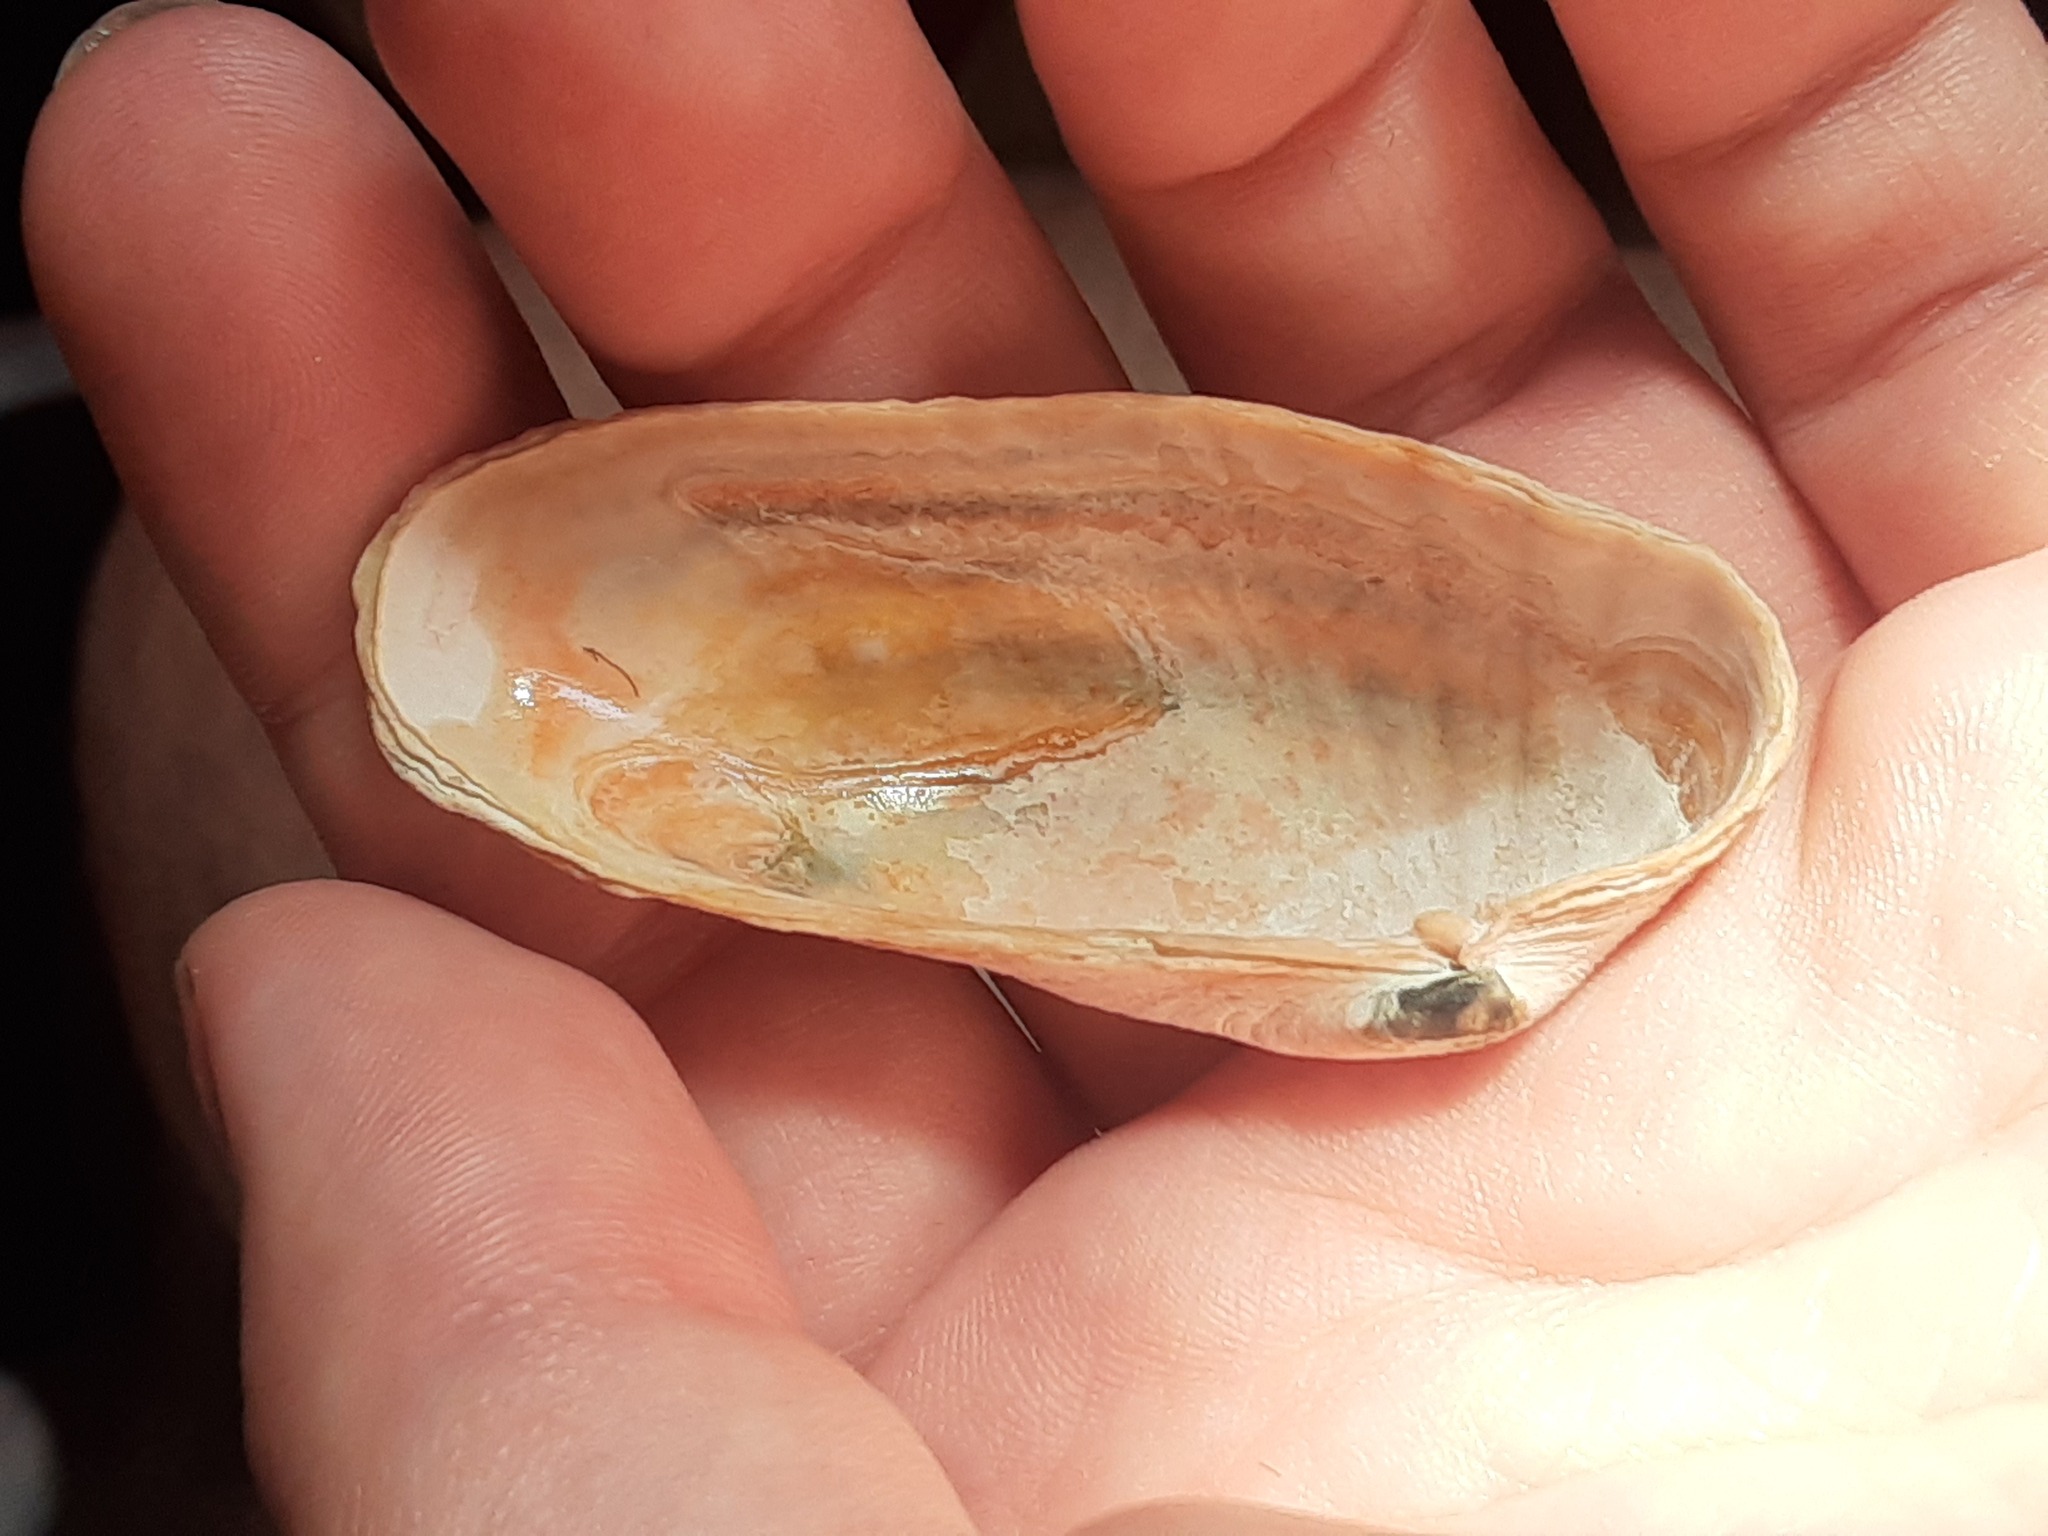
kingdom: Animalia
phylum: Mollusca
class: Bivalvia
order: Venerida
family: Veneridae
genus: Petricolaria
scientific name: Petricolaria pholadiformis
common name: American piddock
